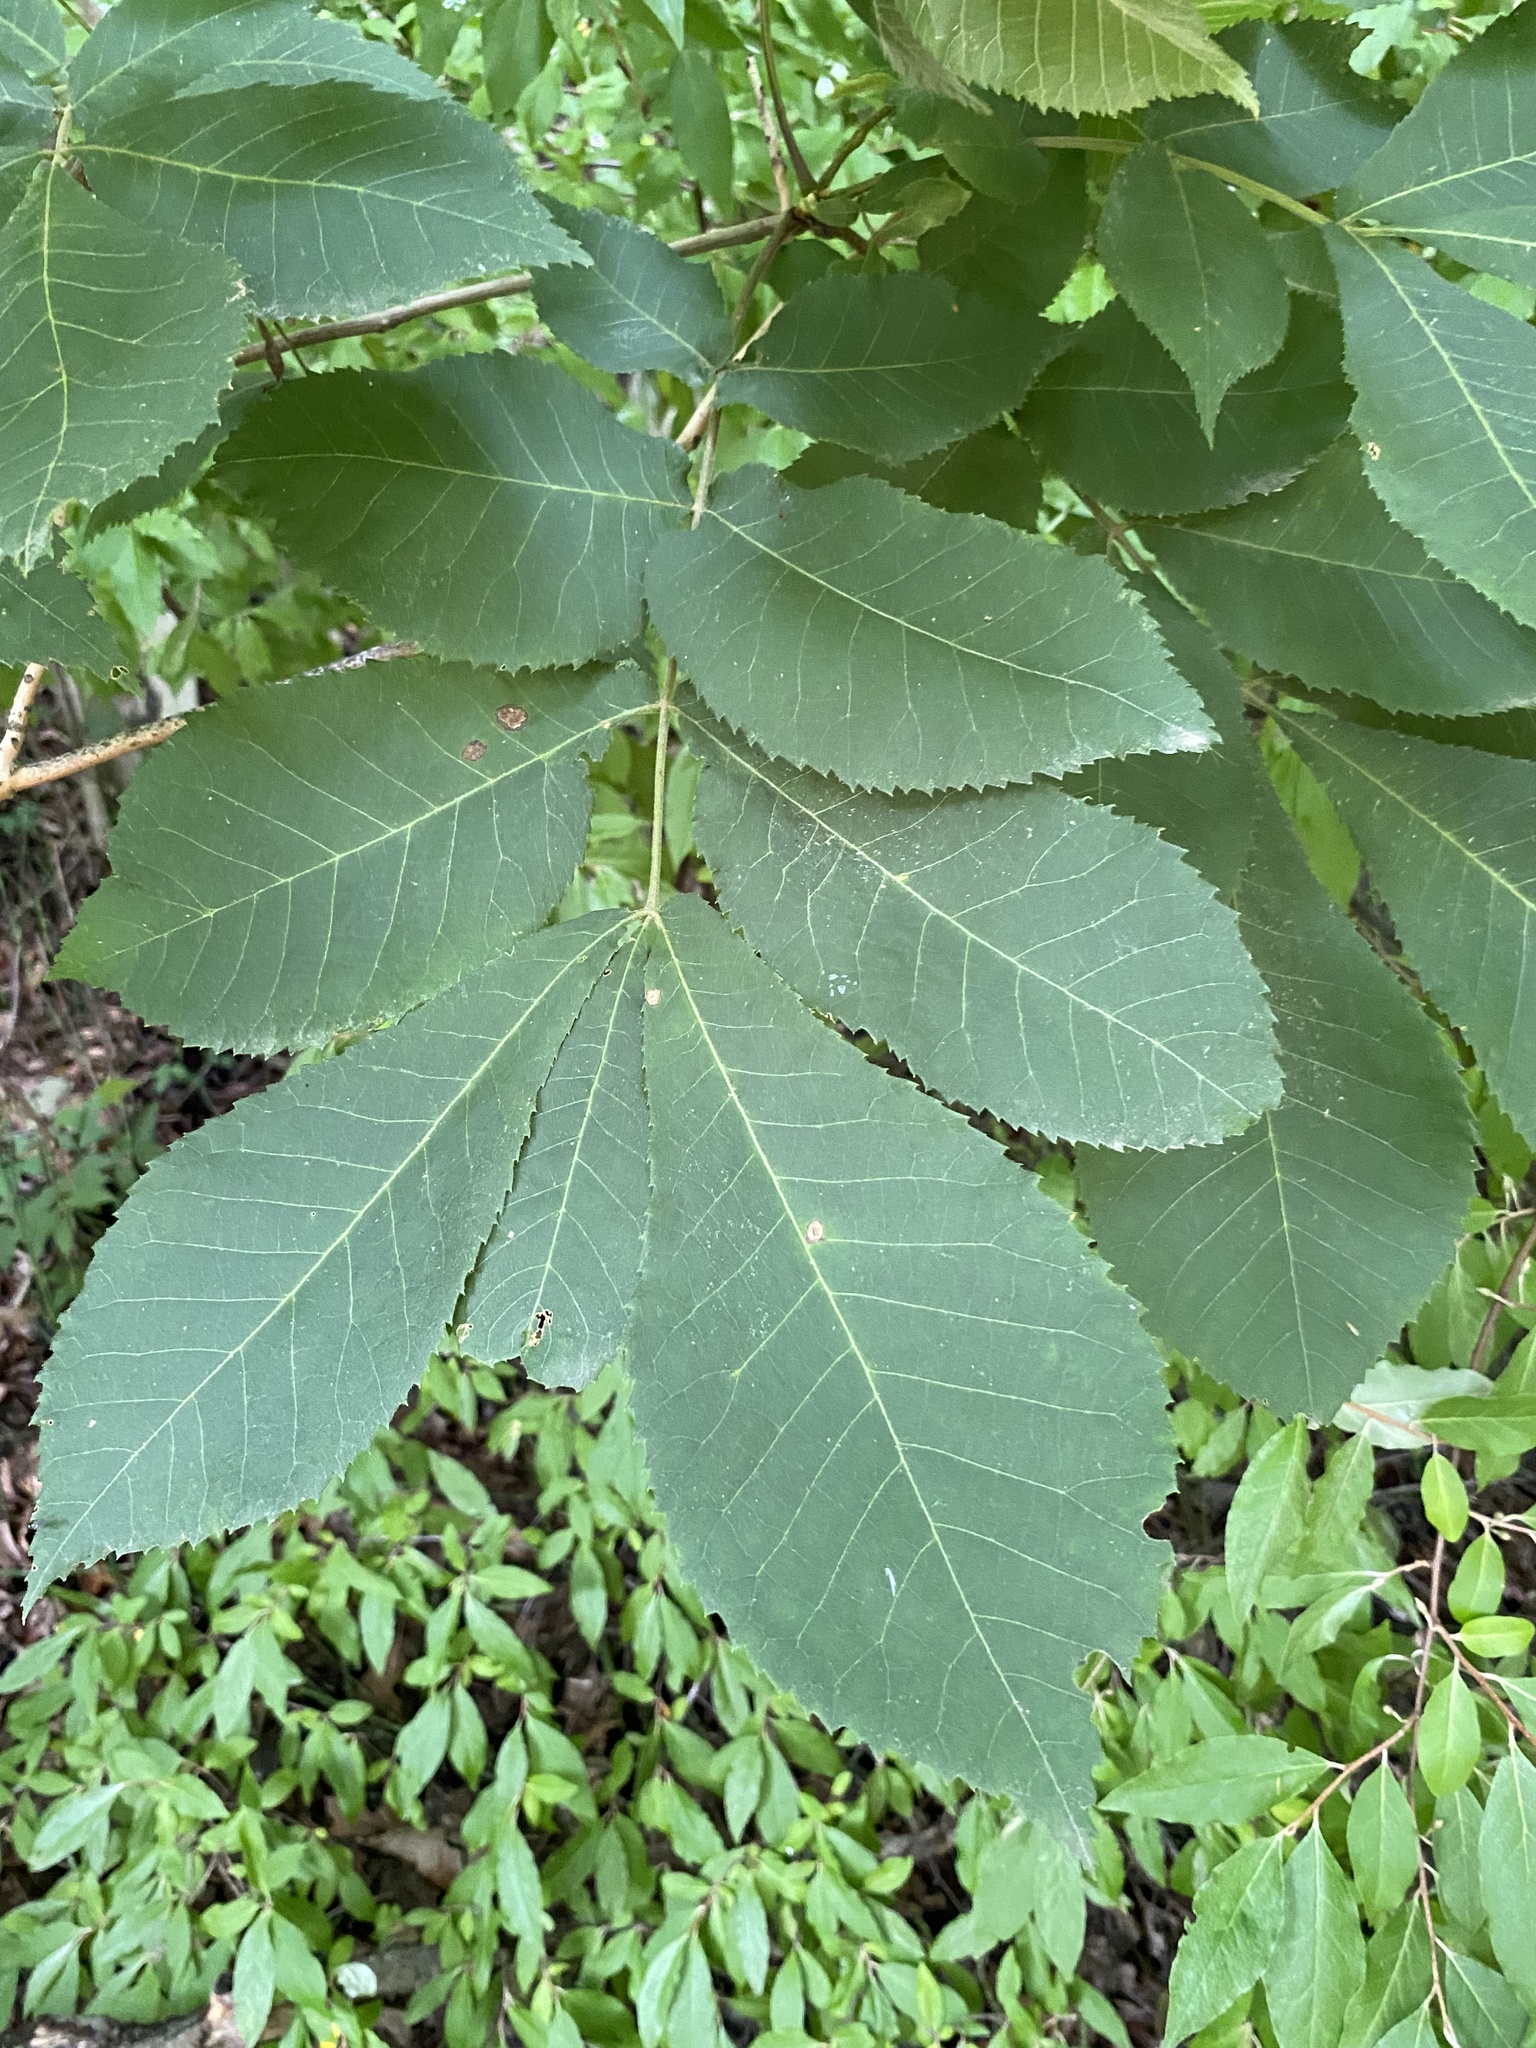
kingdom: Plantae
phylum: Tracheophyta
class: Magnoliopsida
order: Fagales
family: Juglandaceae
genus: Carya
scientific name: Carya cordiformis
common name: Bitternut hickory
